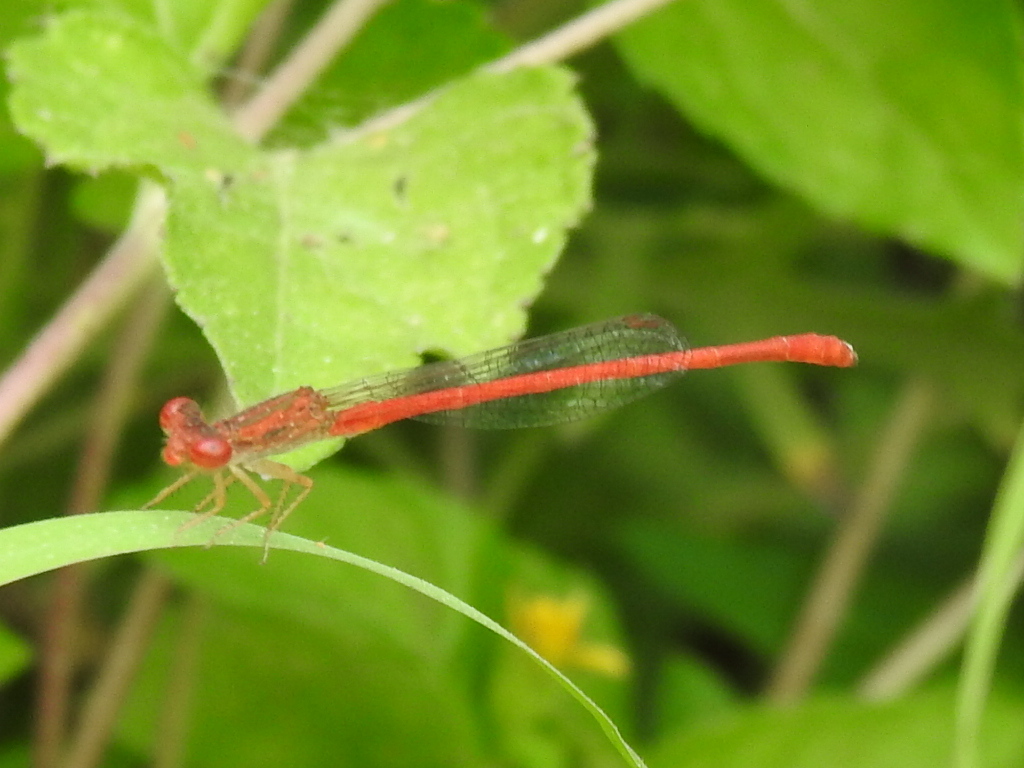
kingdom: Animalia
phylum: Arthropoda
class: Insecta
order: Odonata
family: Coenagrionidae
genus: Telebasis
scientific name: Telebasis salva
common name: Desert firetail
